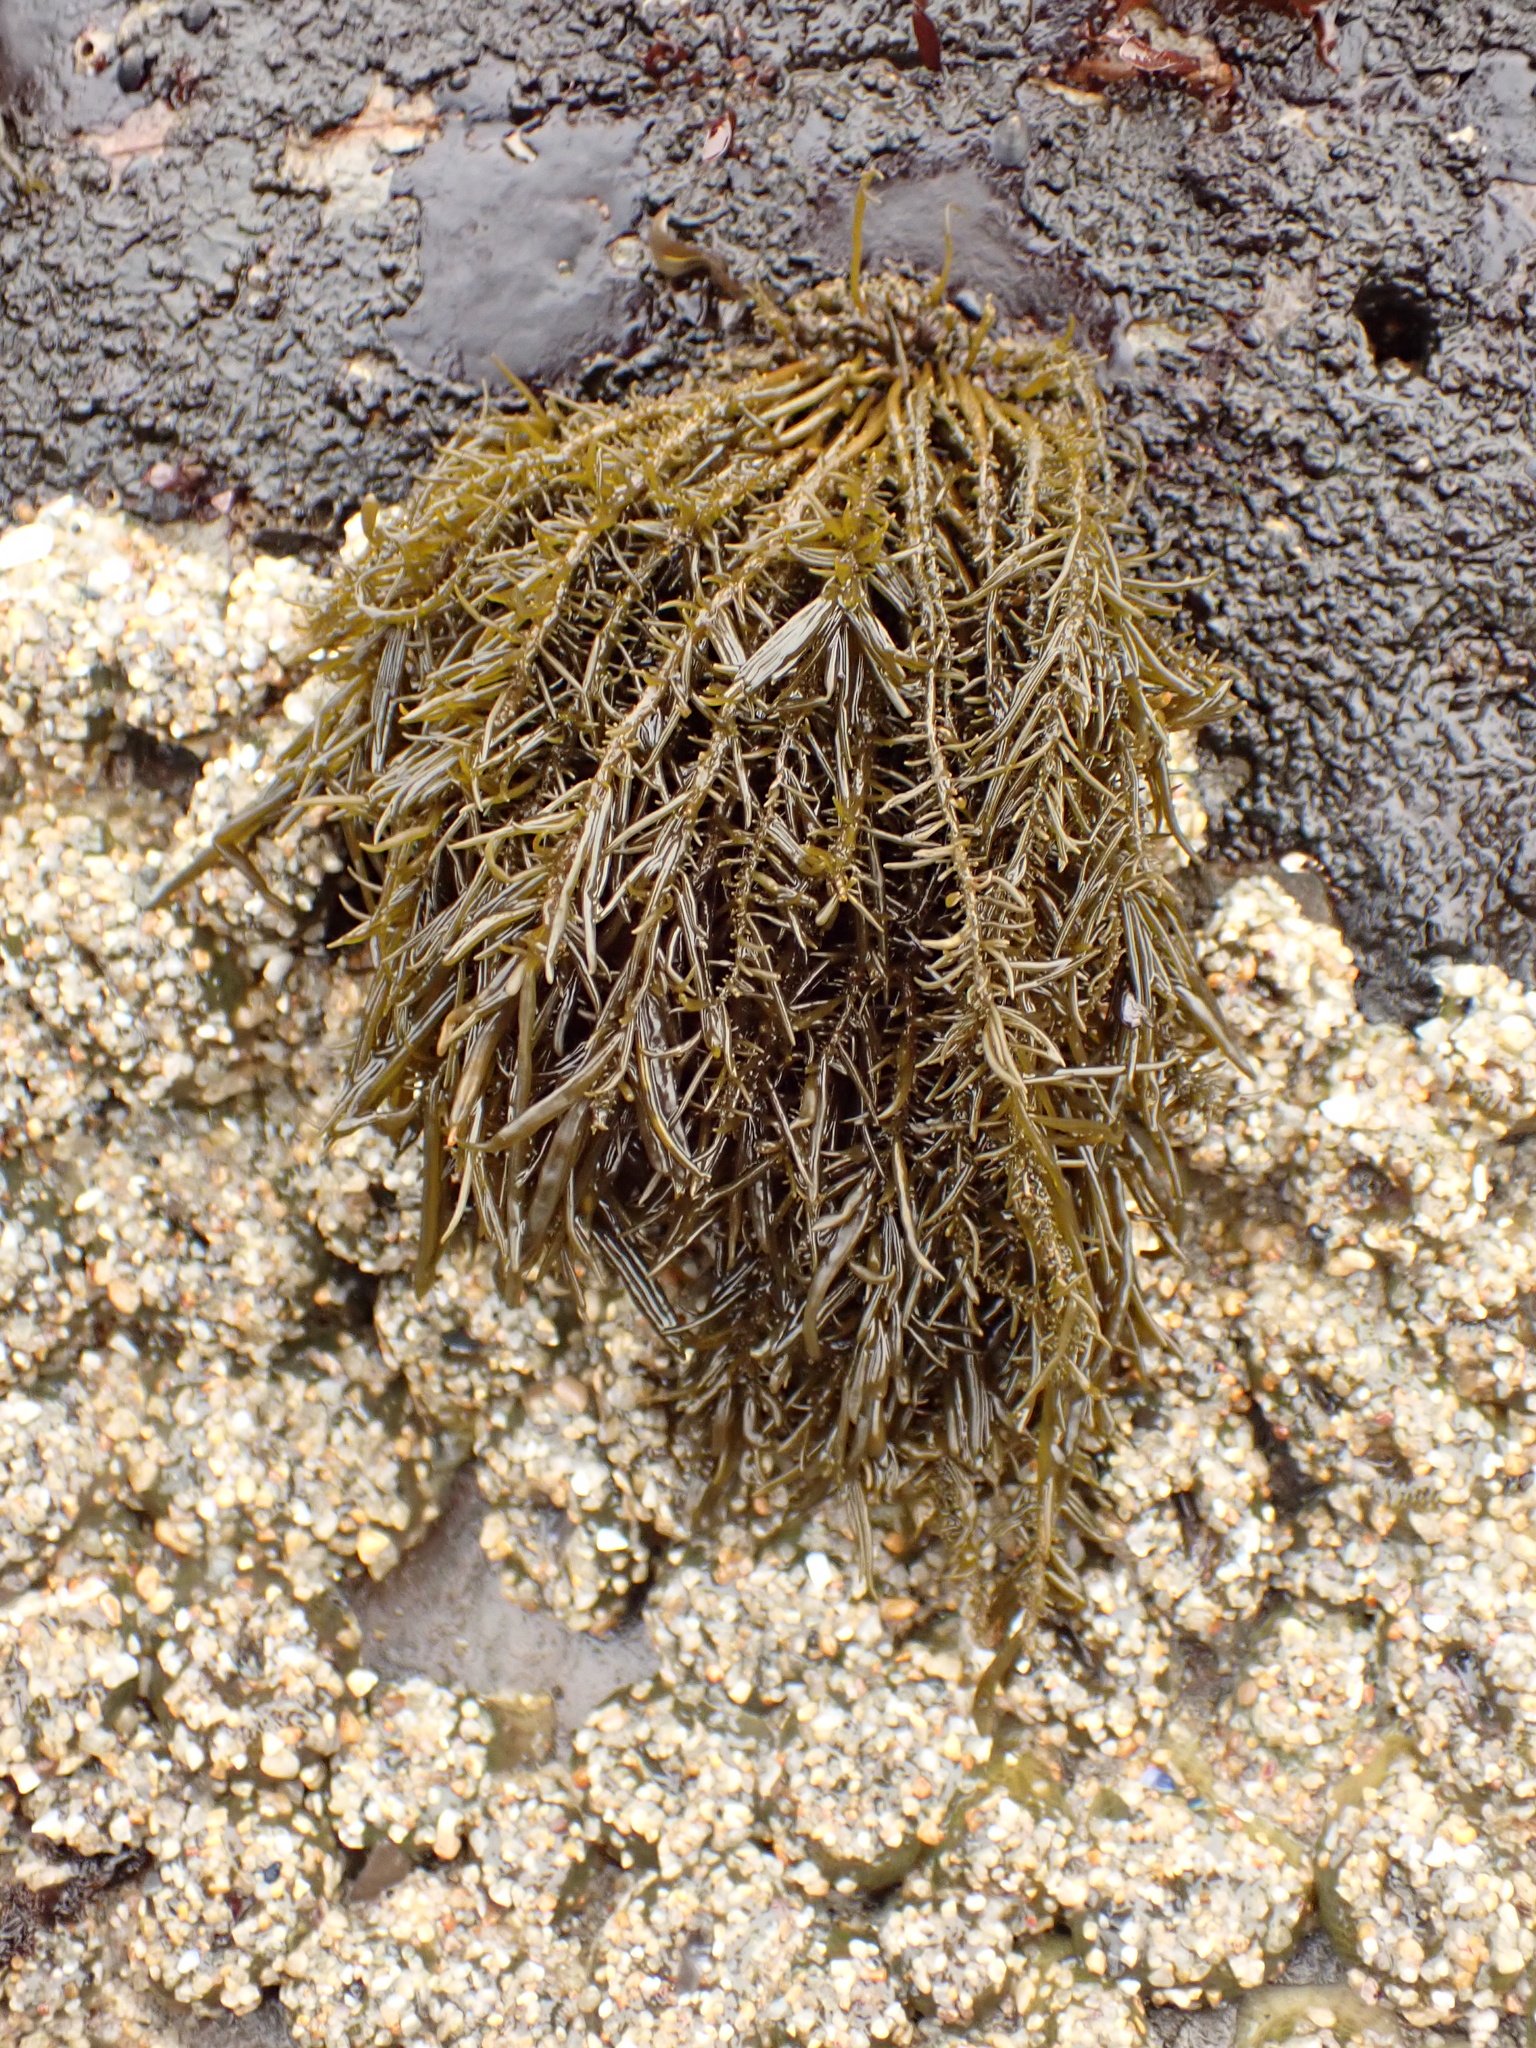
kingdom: Chromista
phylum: Ochrophyta
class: Phaeophyceae
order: Scytosiphonales
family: Scytosiphonaceae
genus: Analipus
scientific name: Analipus japonicus
